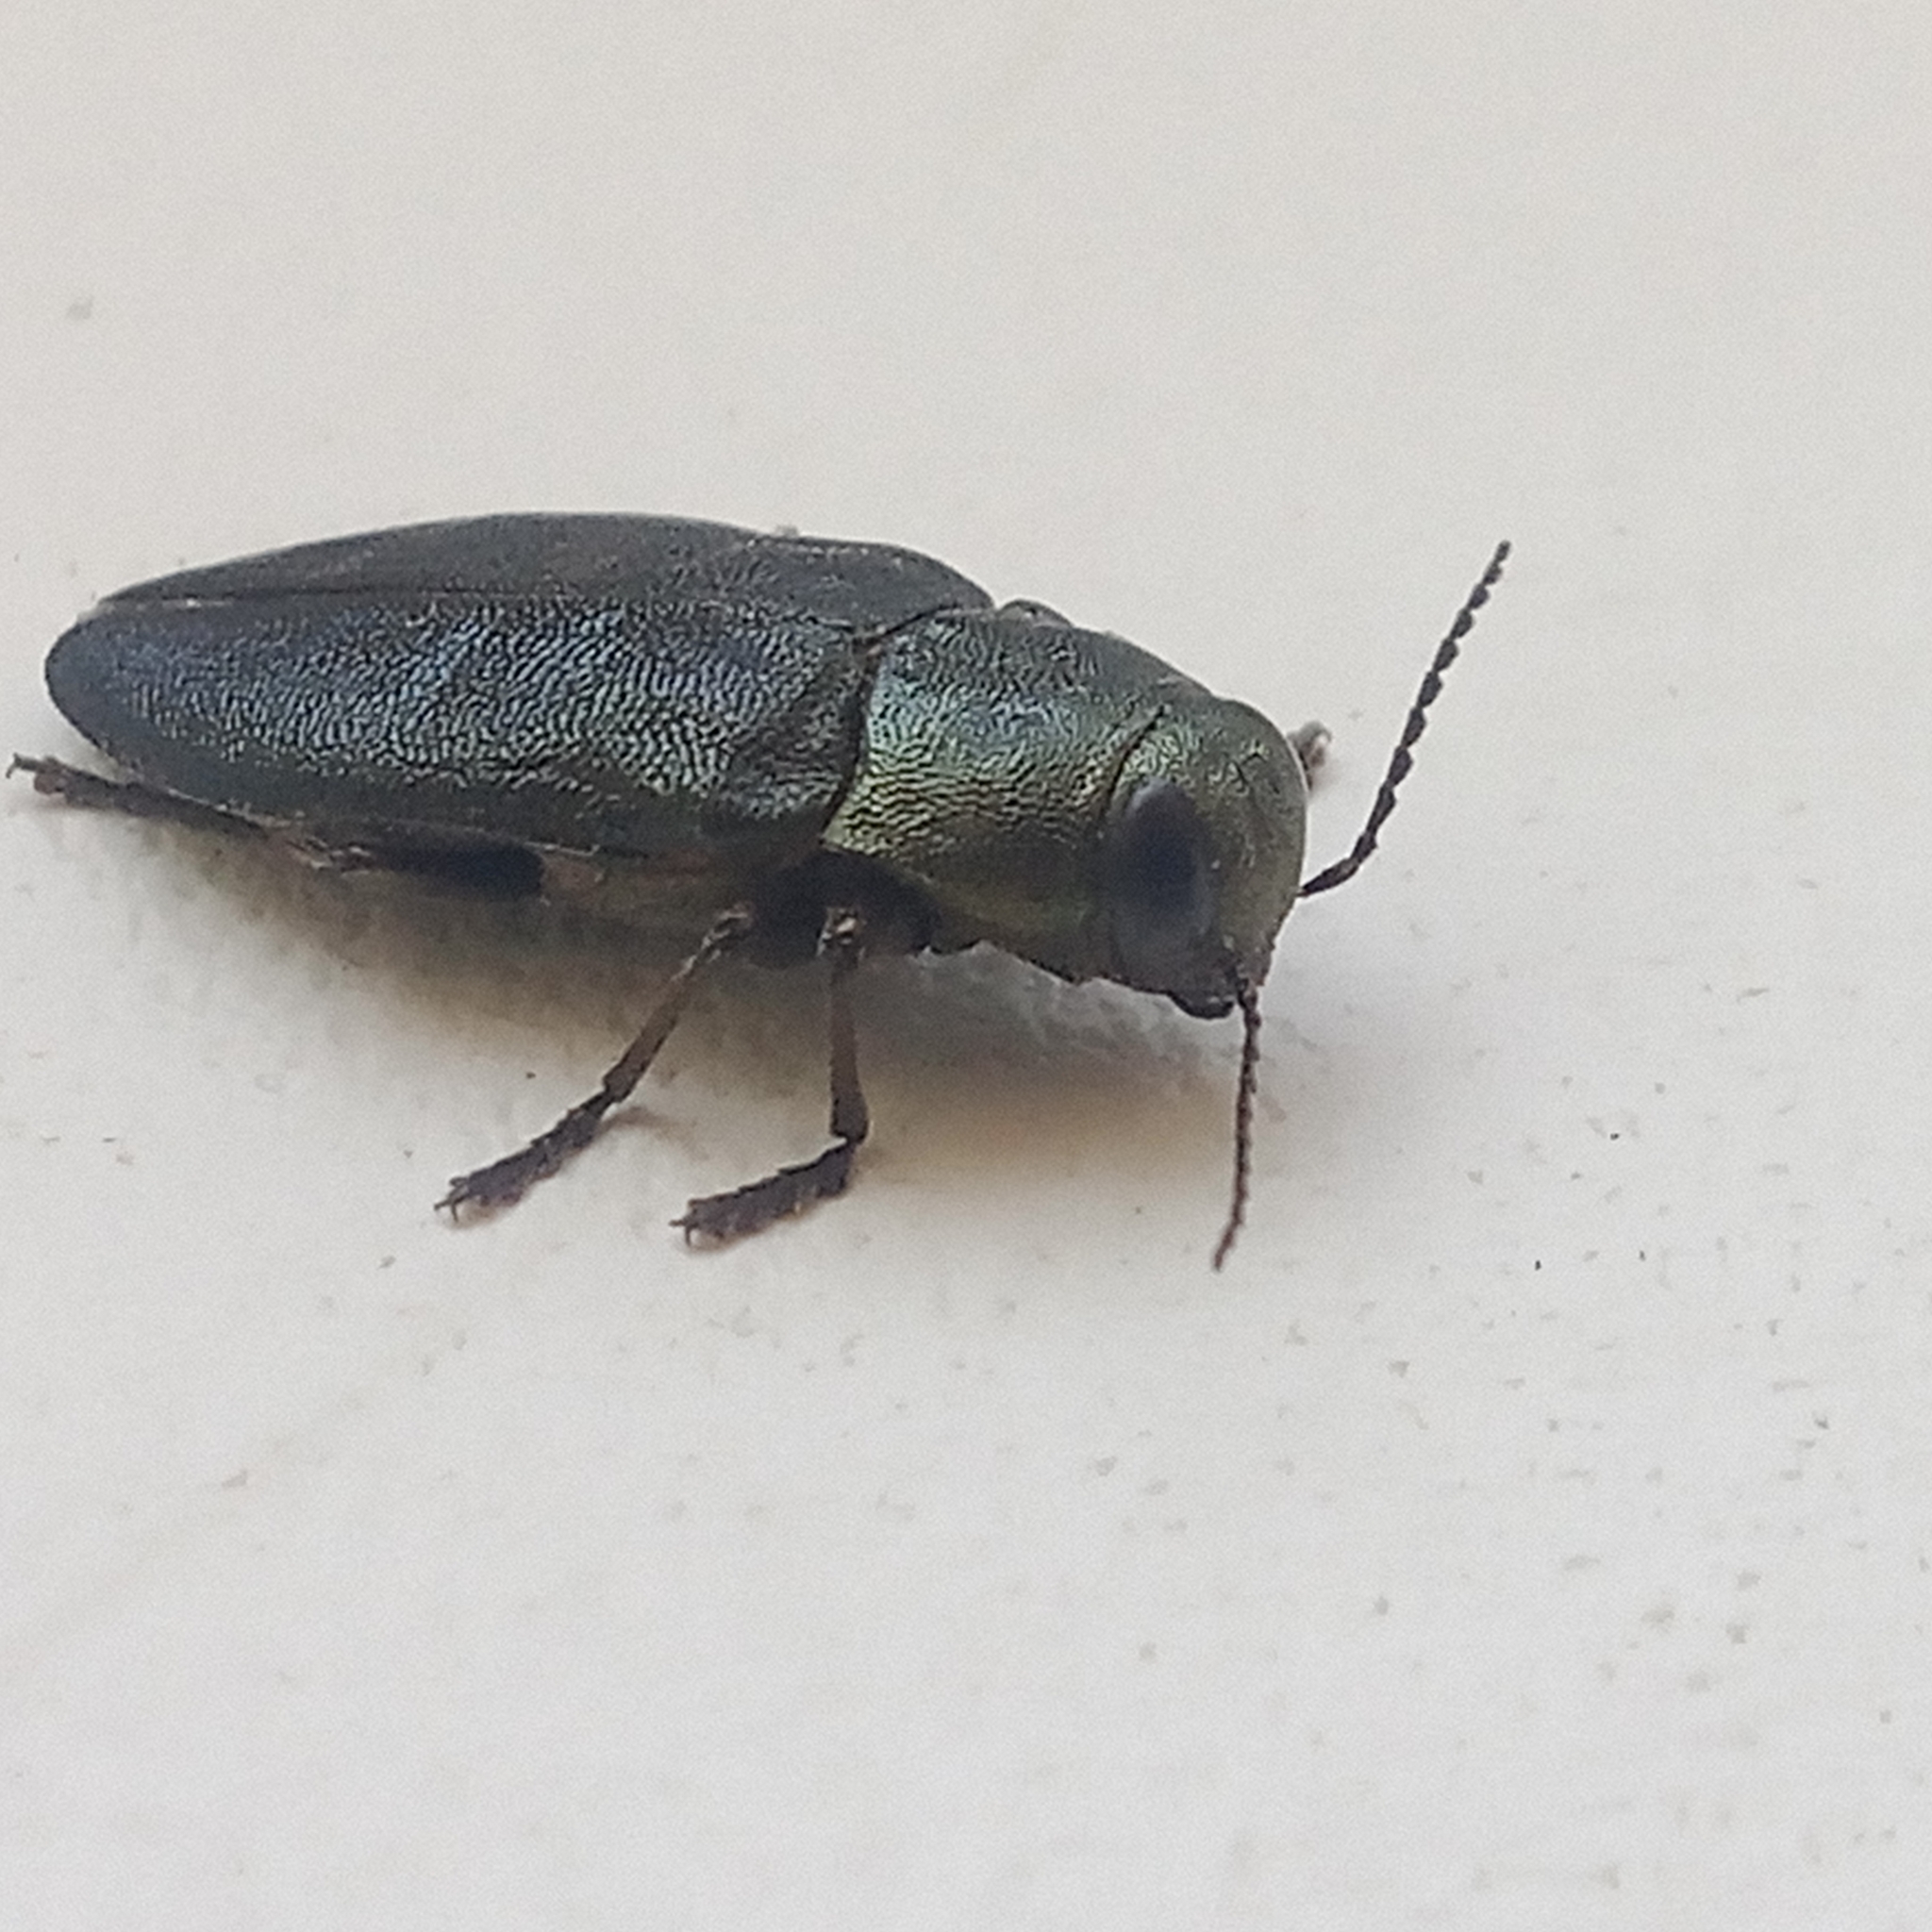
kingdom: Animalia
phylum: Arthropoda
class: Insecta
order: Coleoptera
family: Buprestidae
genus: Phaenops
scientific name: Phaenops cyanea
